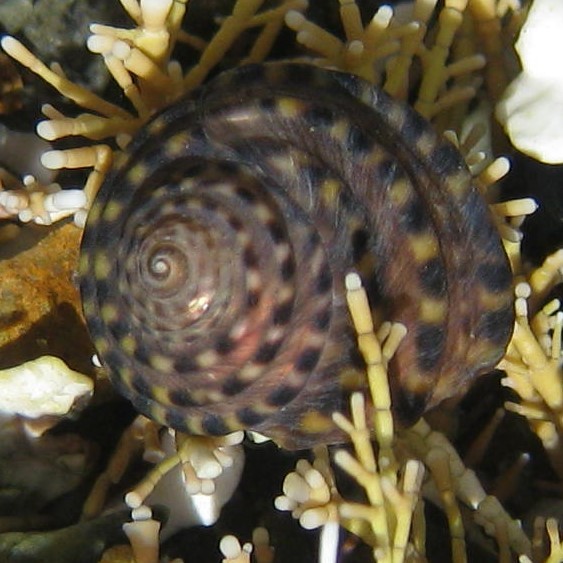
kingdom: Animalia
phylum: Mollusca
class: Gastropoda
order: Trochida
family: Trochidae
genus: Diloma
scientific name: Diloma bicanaliculatum
